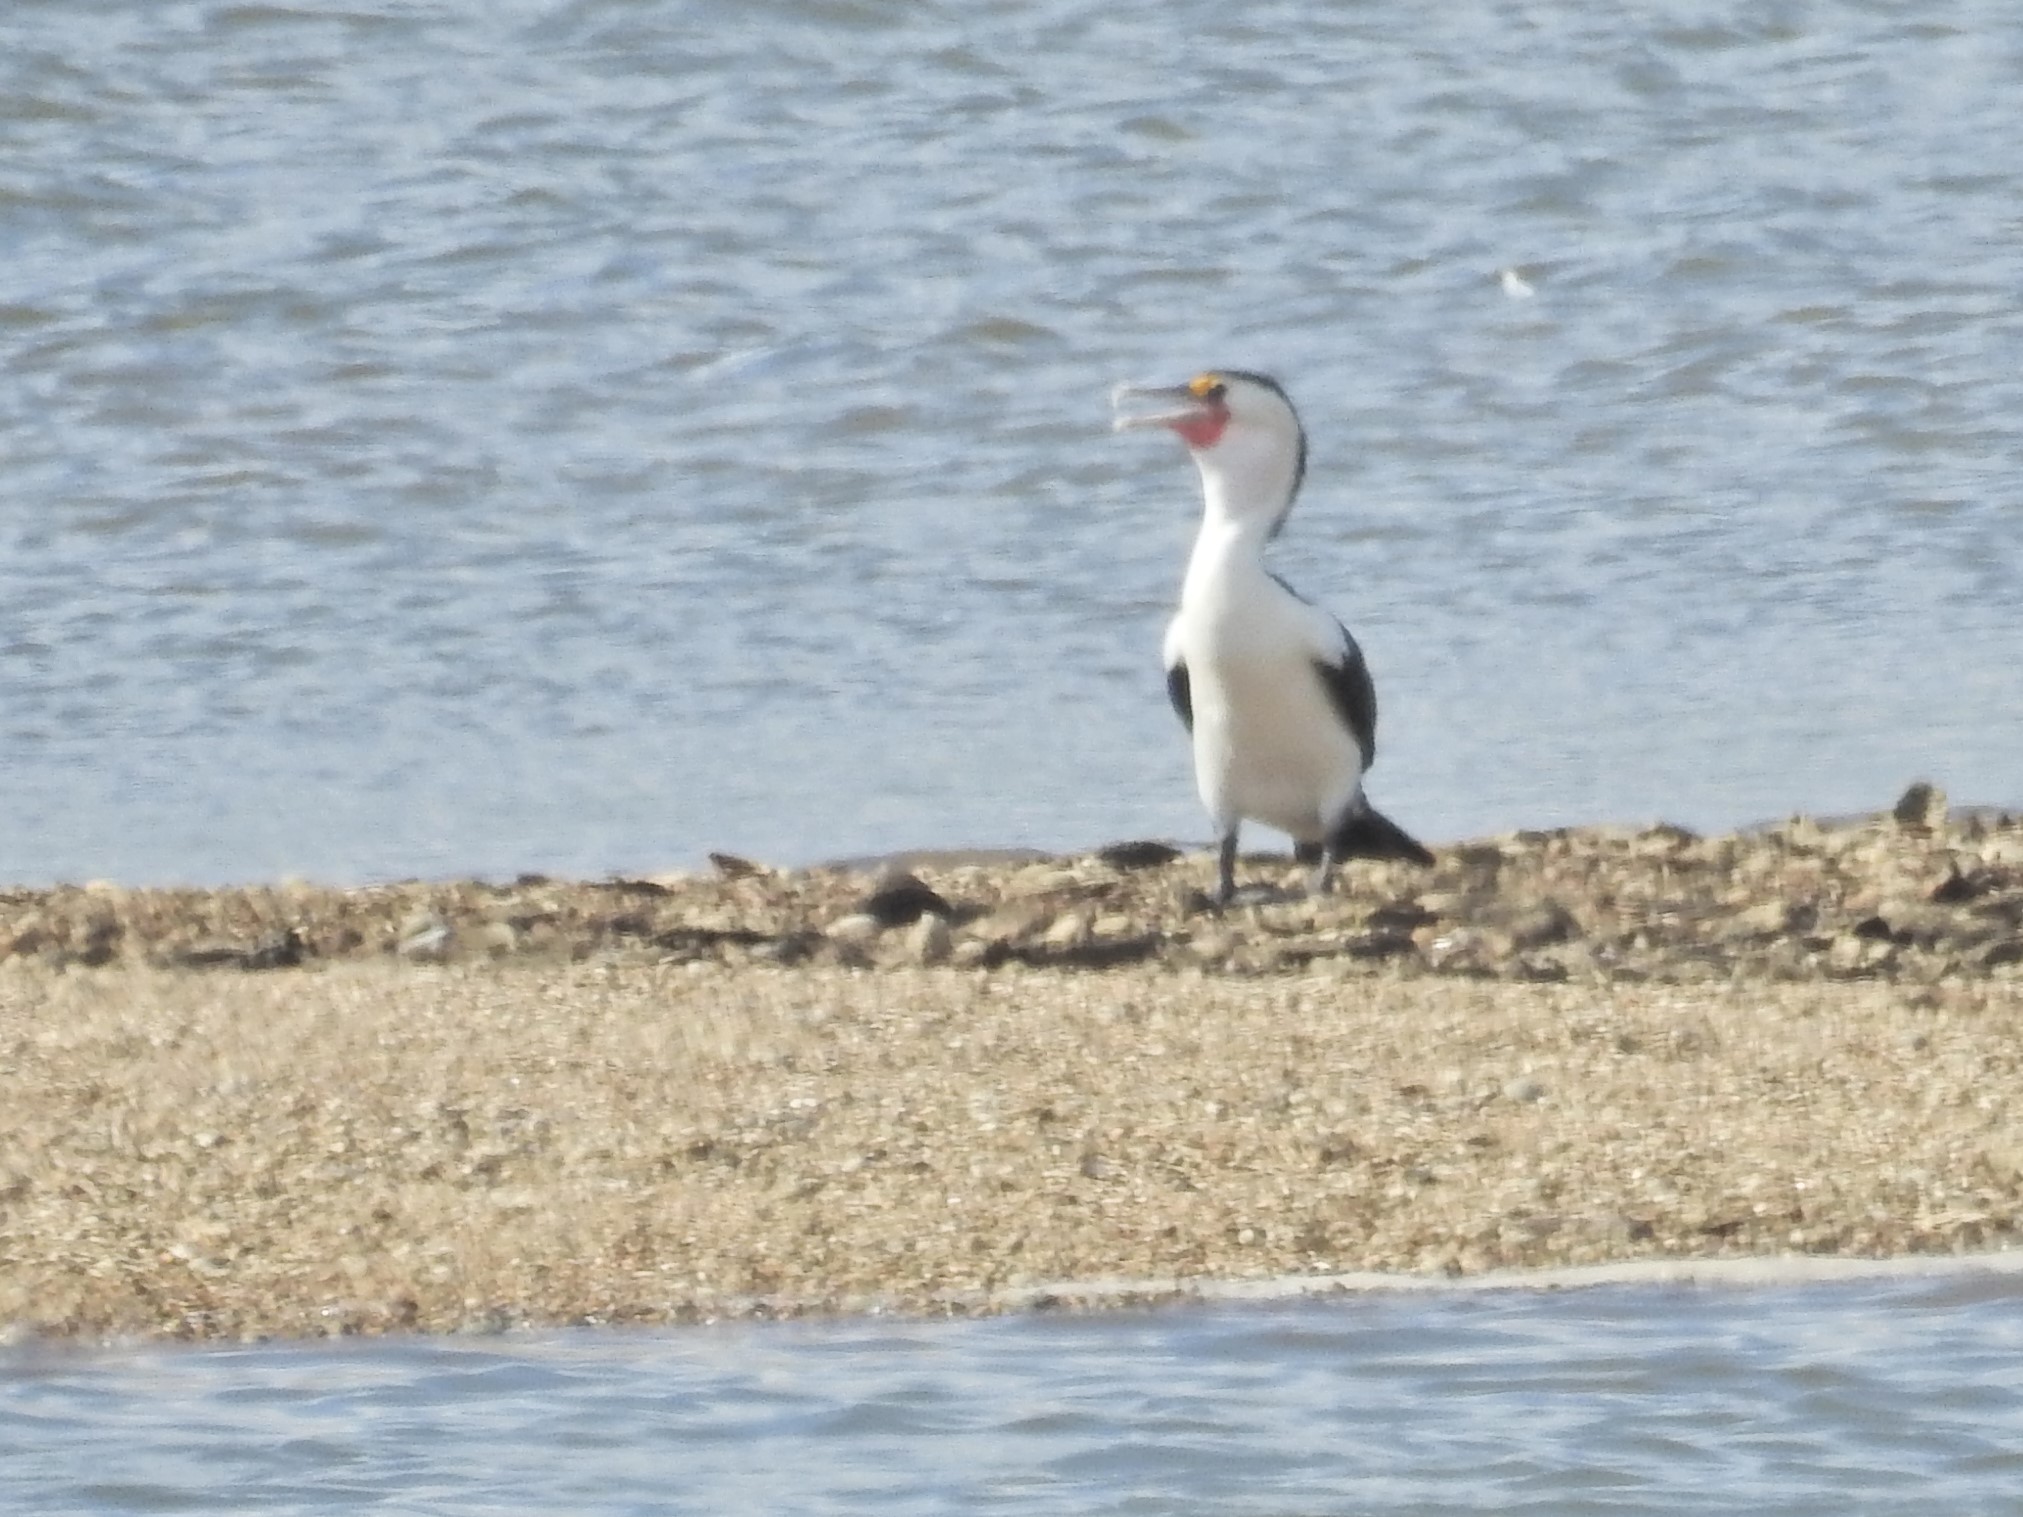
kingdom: Animalia
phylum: Chordata
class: Aves
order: Suliformes
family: Phalacrocoracidae
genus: Phalacrocorax
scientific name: Phalacrocorax varius
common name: Pied cormorant
